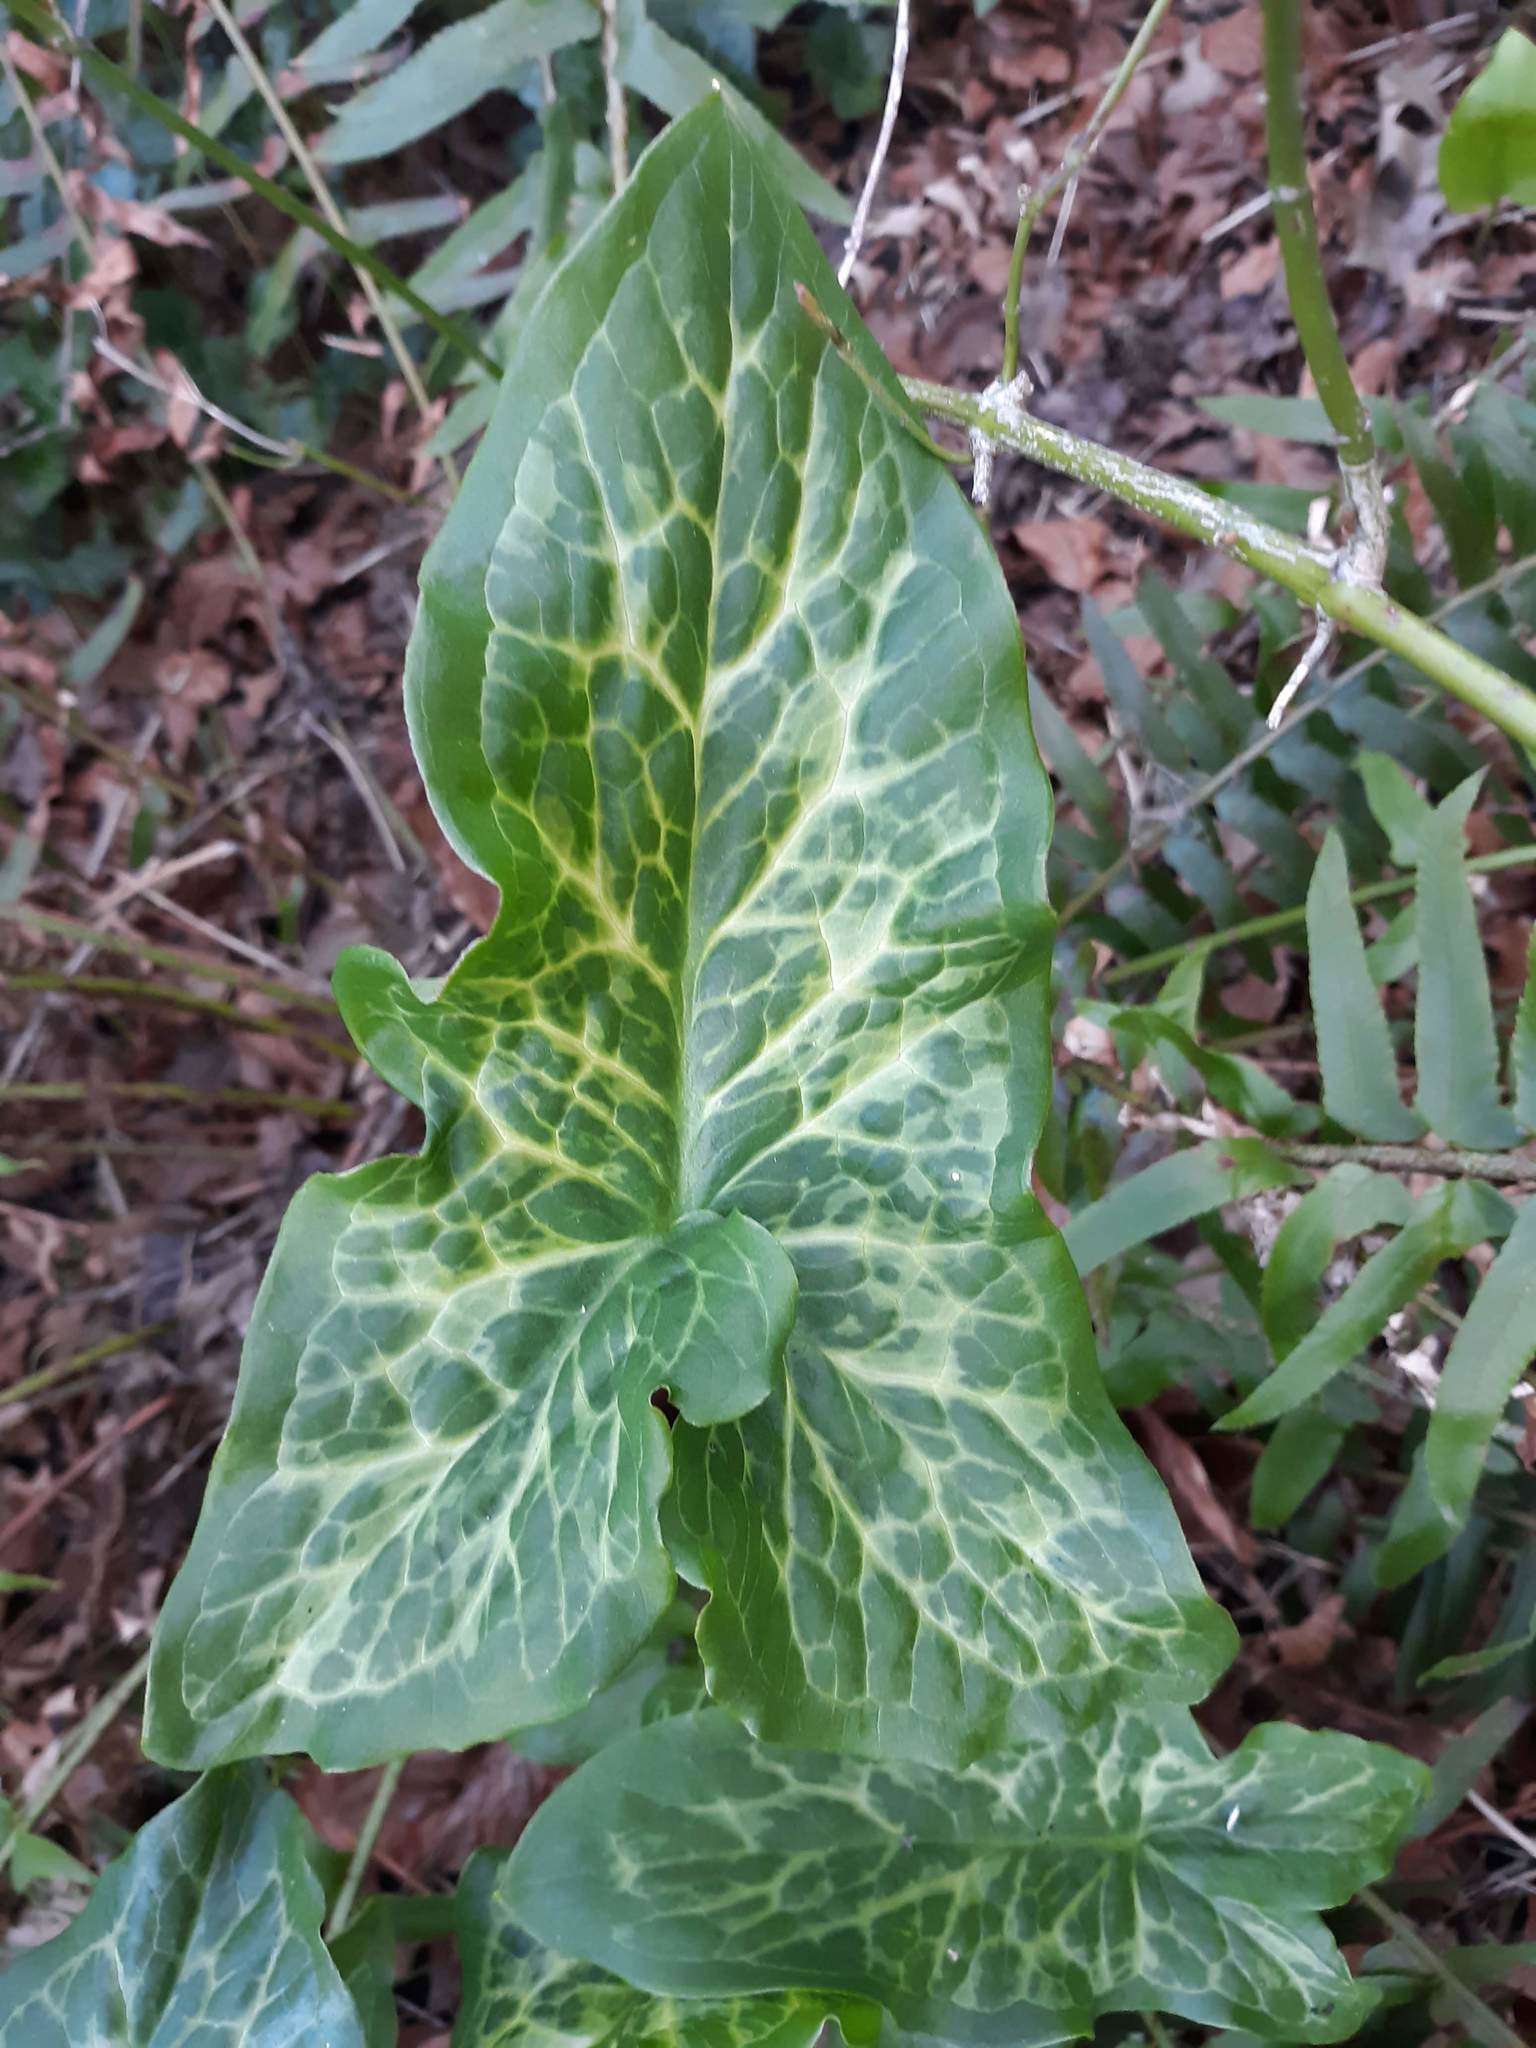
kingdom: Plantae
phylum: Tracheophyta
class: Liliopsida
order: Alismatales
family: Araceae
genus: Arum
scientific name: Arum italicum
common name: Italian lords-and-ladies
